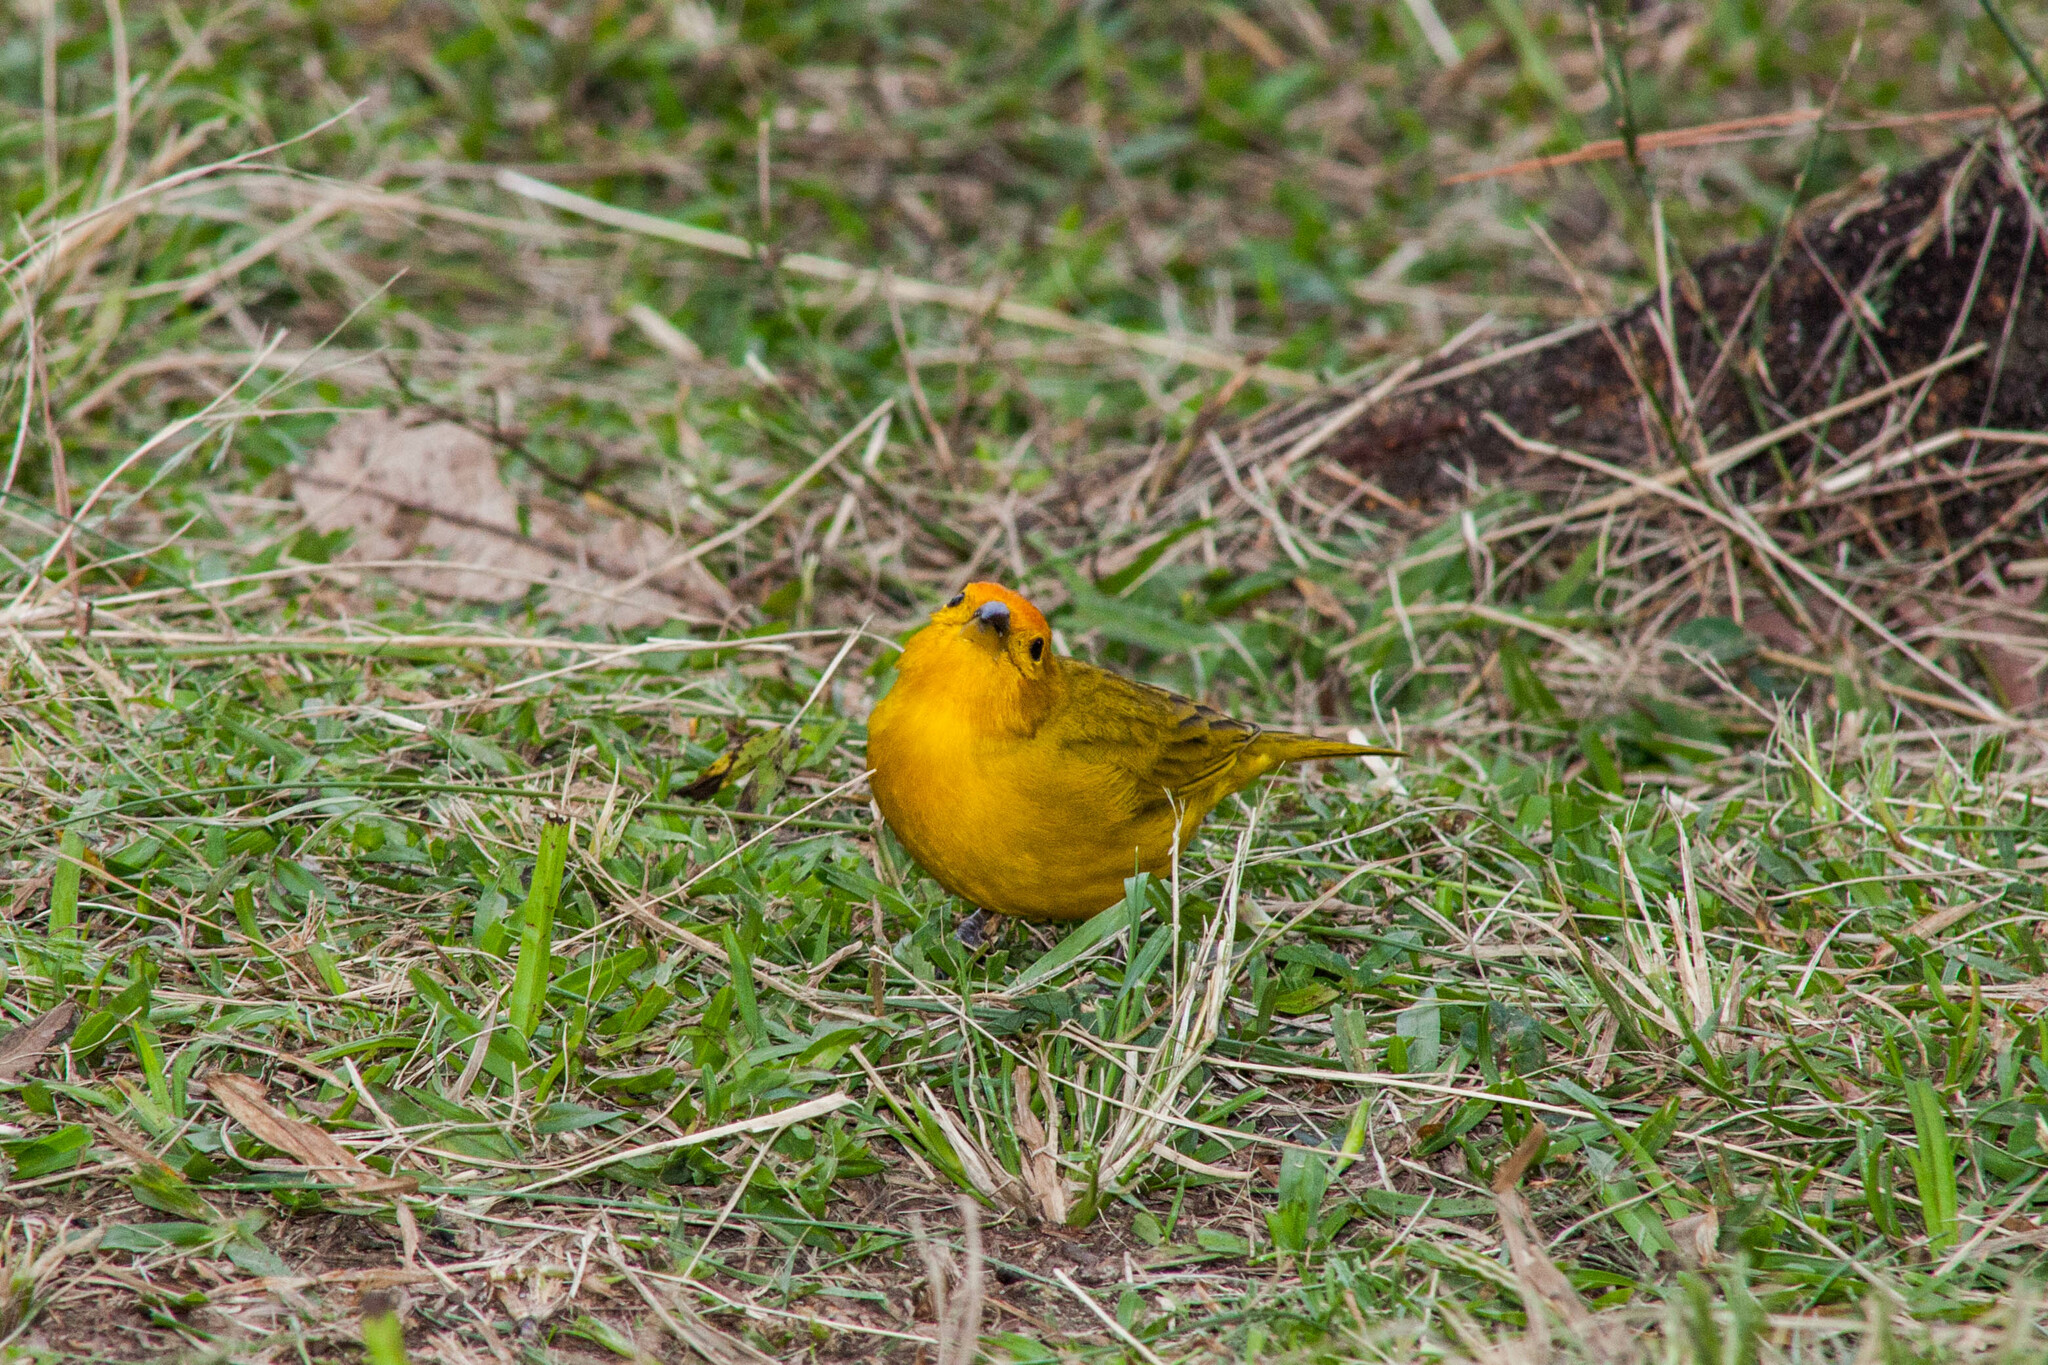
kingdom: Animalia
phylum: Chordata
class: Aves
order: Passeriformes
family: Thraupidae
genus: Sicalis
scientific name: Sicalis flaveola
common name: Saffron finch
